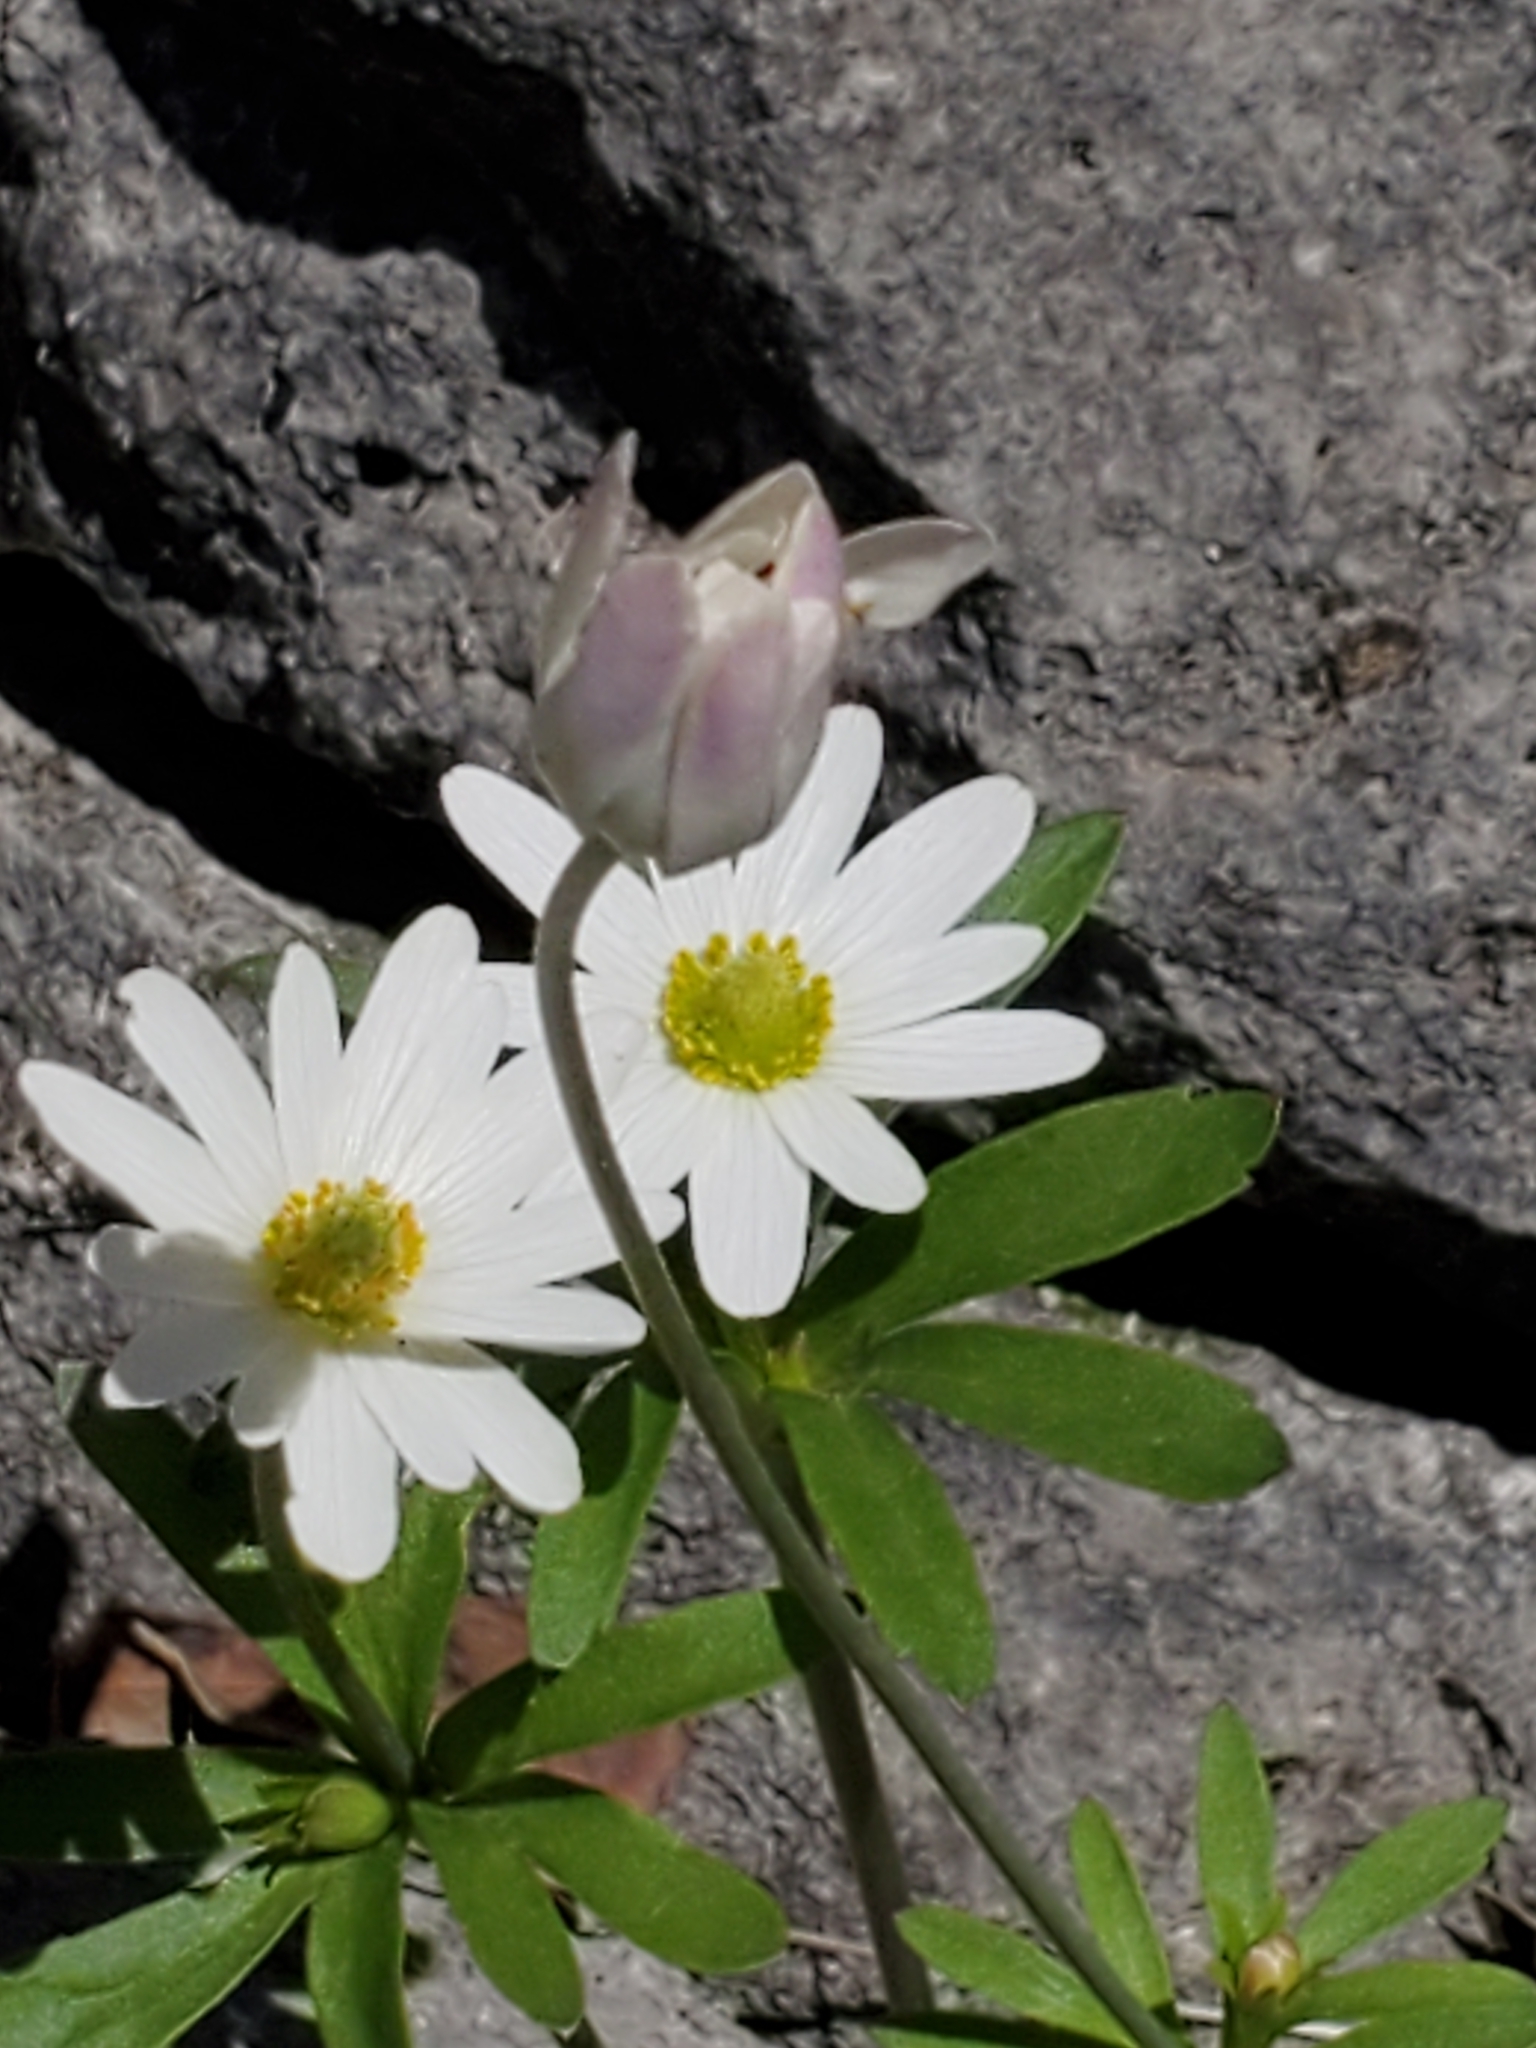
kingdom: Plantae
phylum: Tracheophyta
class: Magnoliopsida
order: Ranunculales
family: Ranunculaceae
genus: Anemone
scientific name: Anemone edwardsiana
